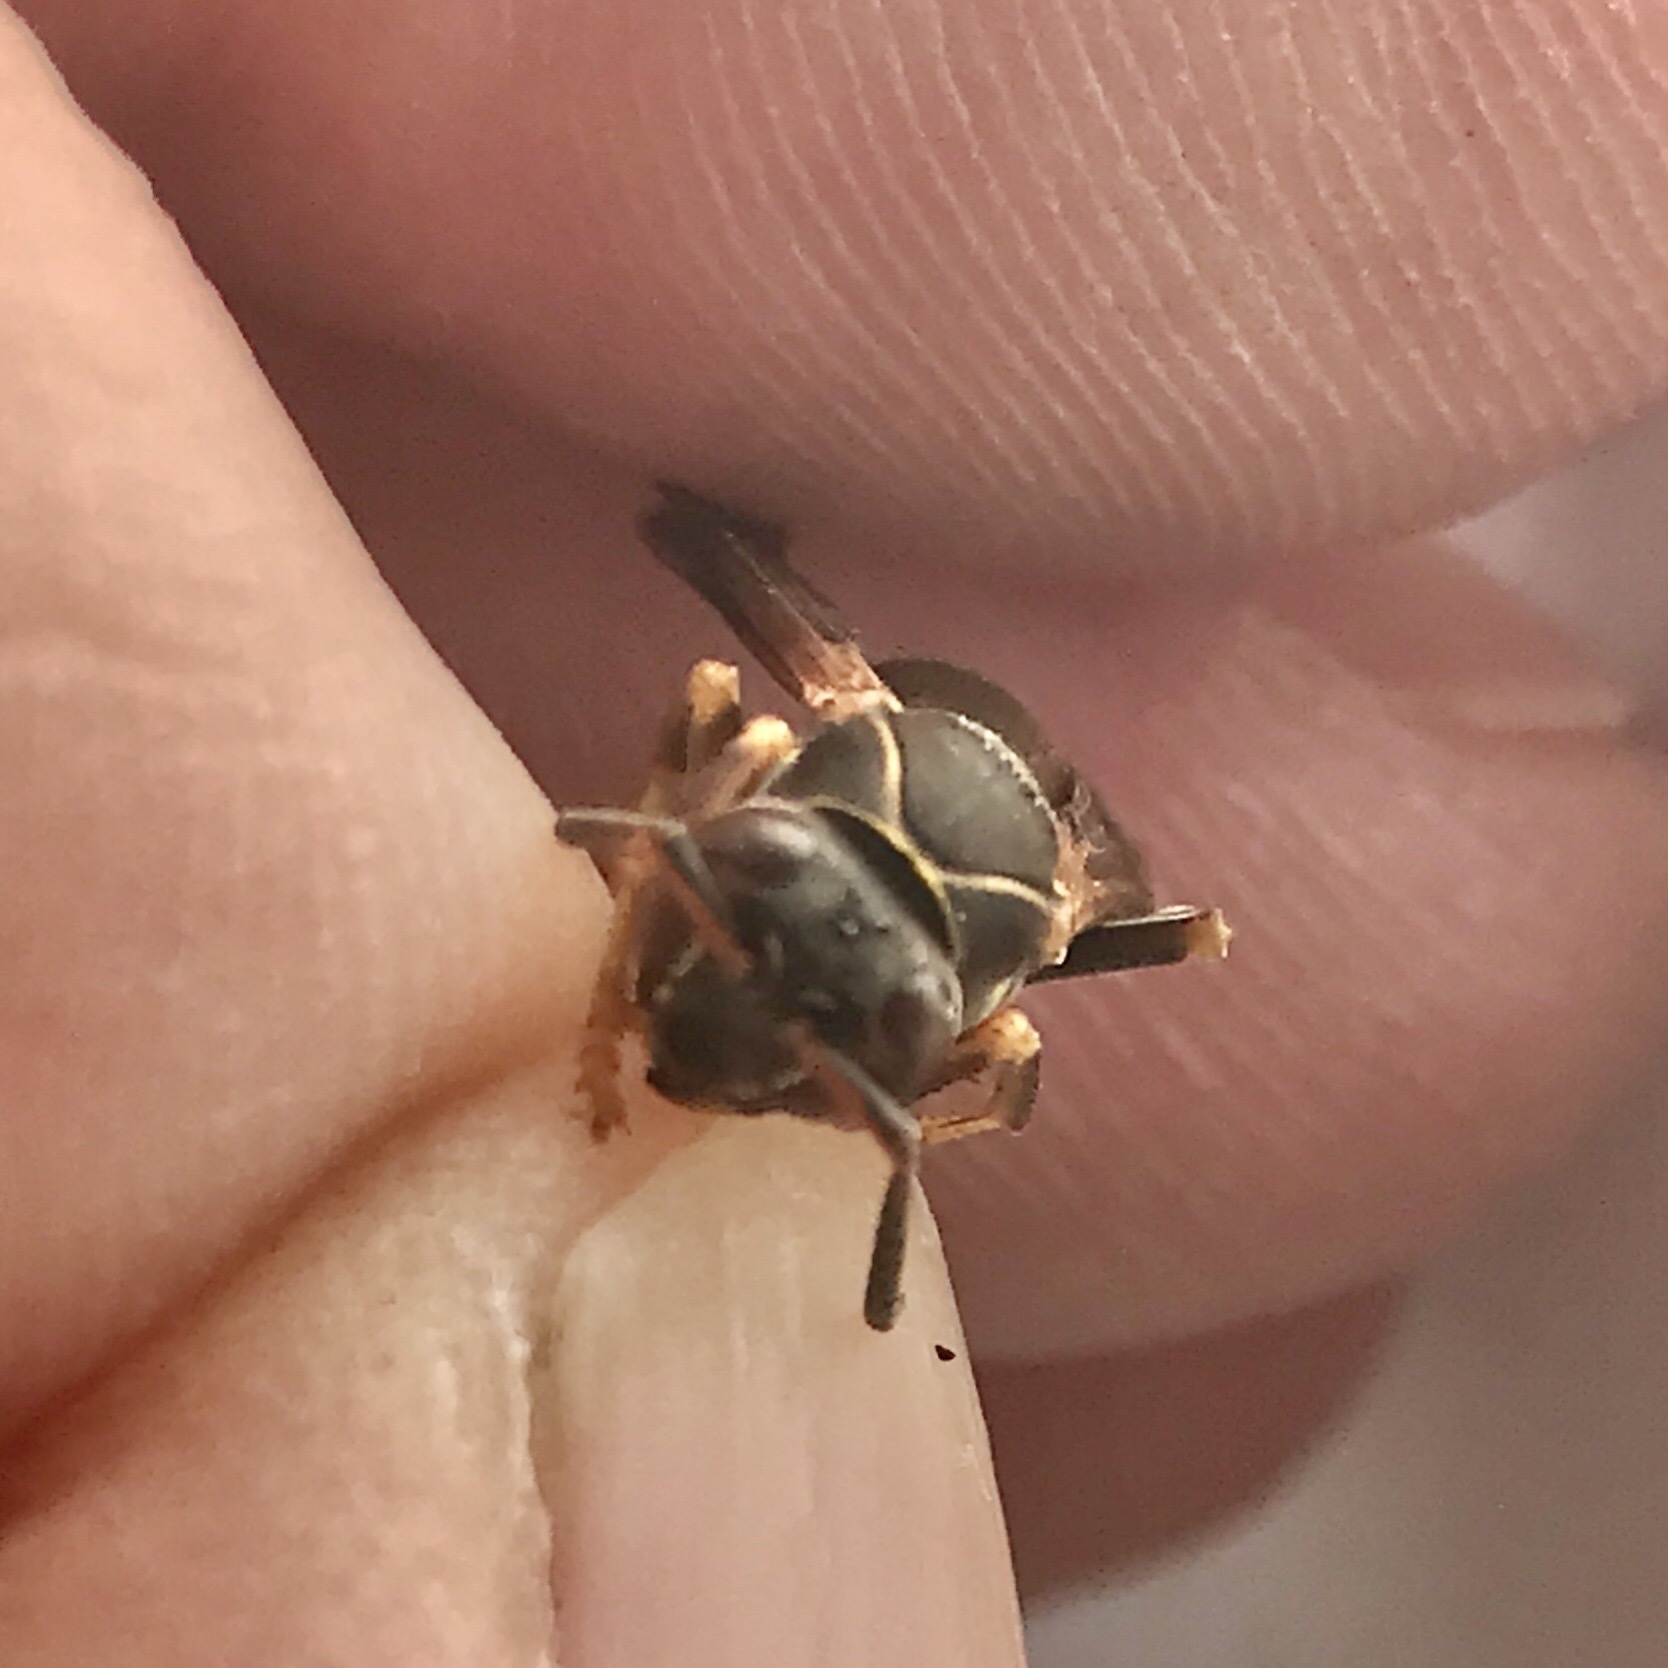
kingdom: Animalia
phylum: Arthropoda
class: Insecta
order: Hymenoptera
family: Eumenidae
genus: Polistes
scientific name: Polistes fuscatus
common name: Dark paper wasp
